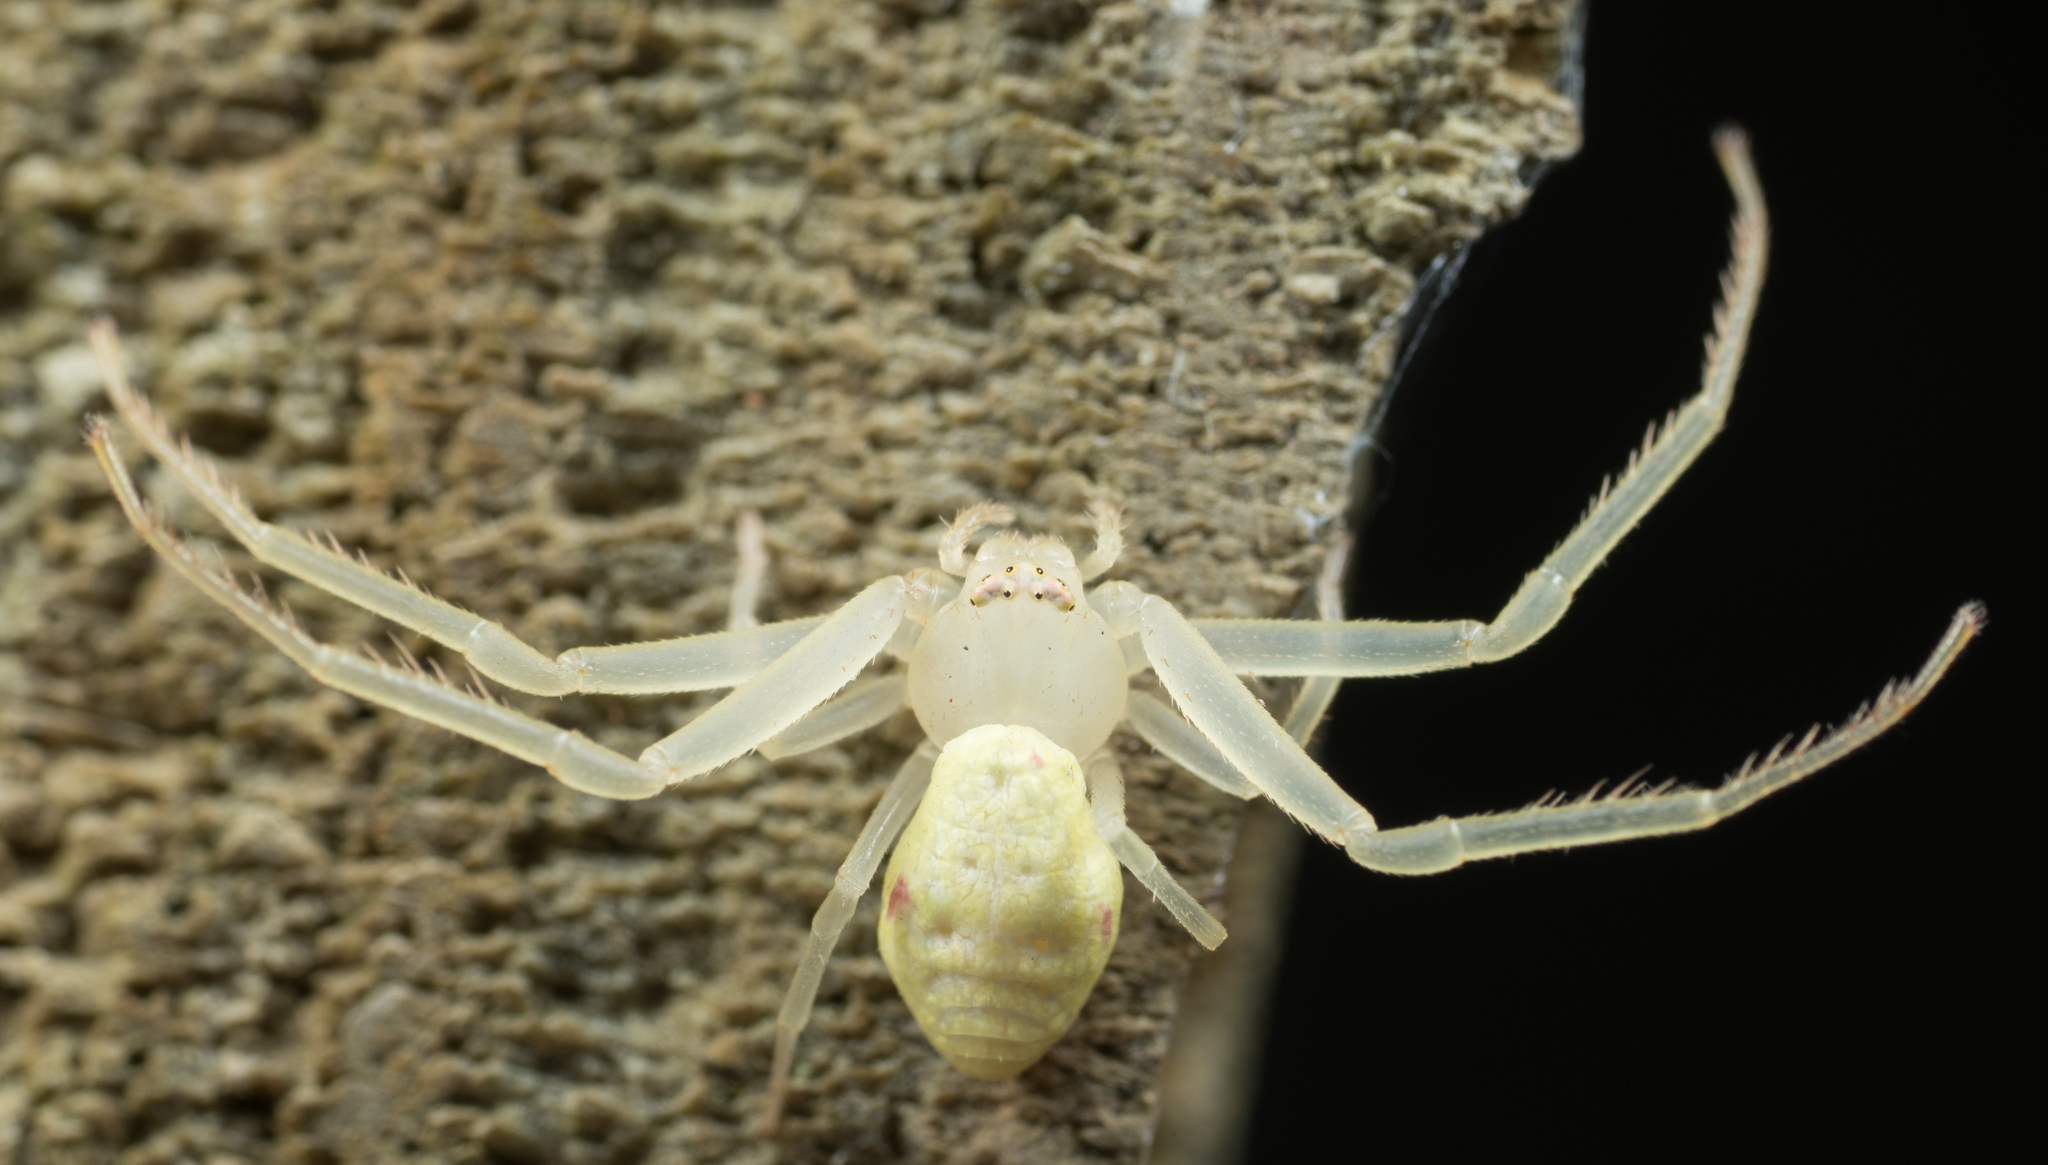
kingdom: Animalia
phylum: Arthropoda
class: Arachnida
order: Araneae
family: Thomisidae
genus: Misumessus
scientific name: Misumessus oblongus
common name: American green crab spider
